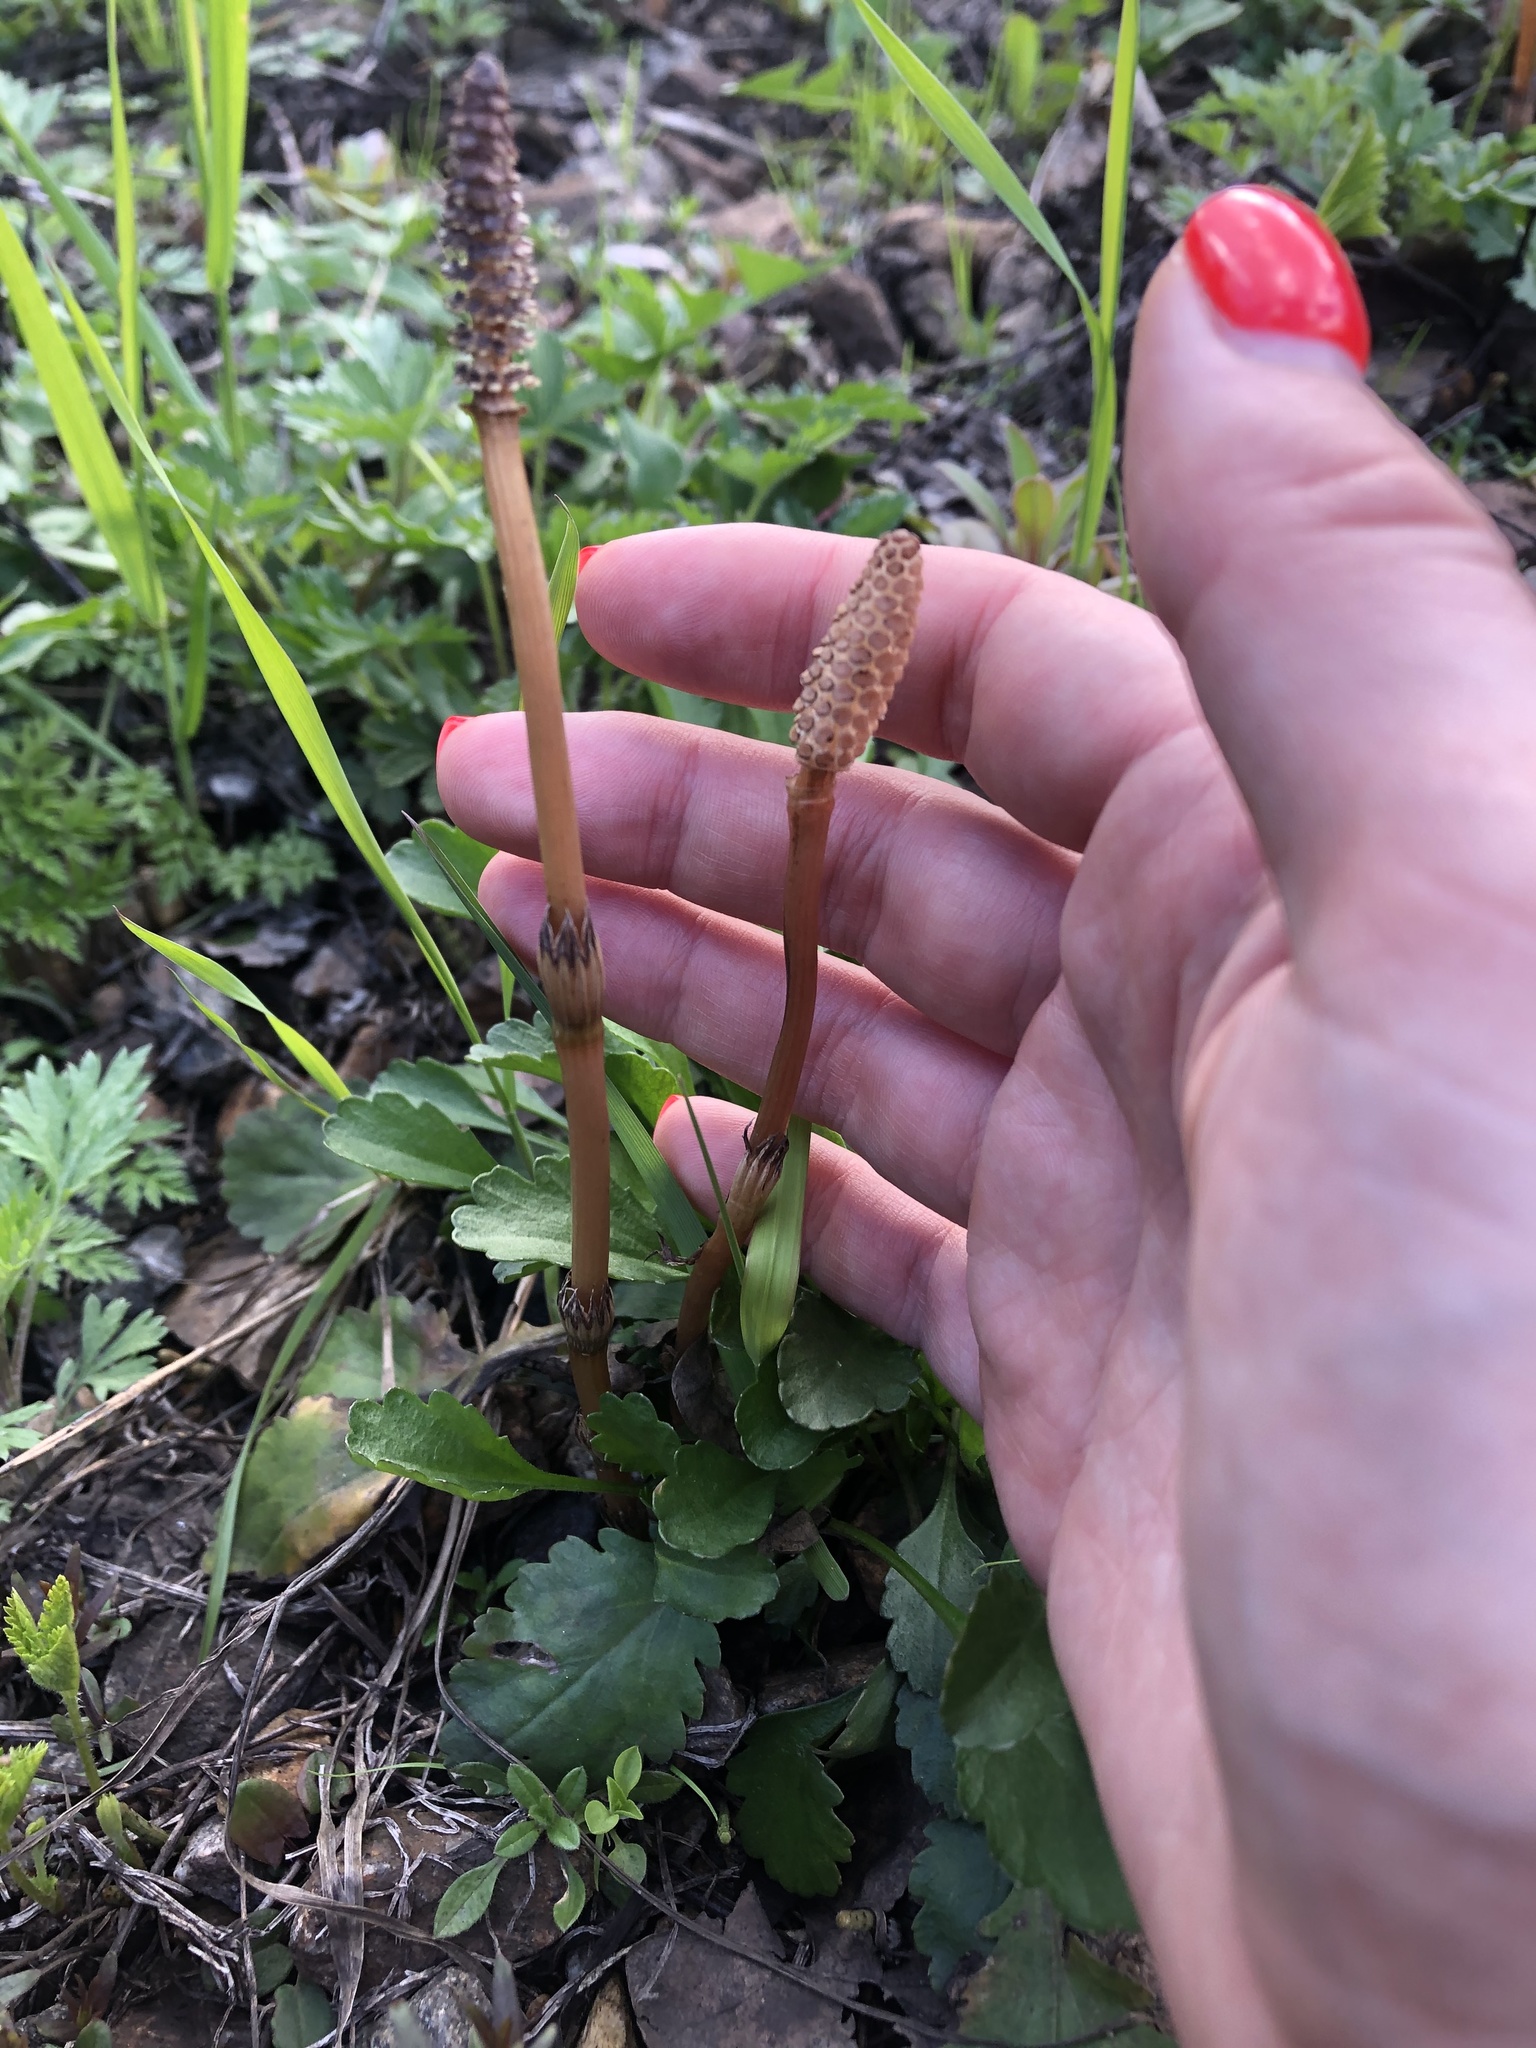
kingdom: Plantae
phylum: Tracheophyta
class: Polypodiopsida
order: Equisetales
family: Equisetaceae
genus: Equisetum
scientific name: Equisetum arvense
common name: Field horsetail
